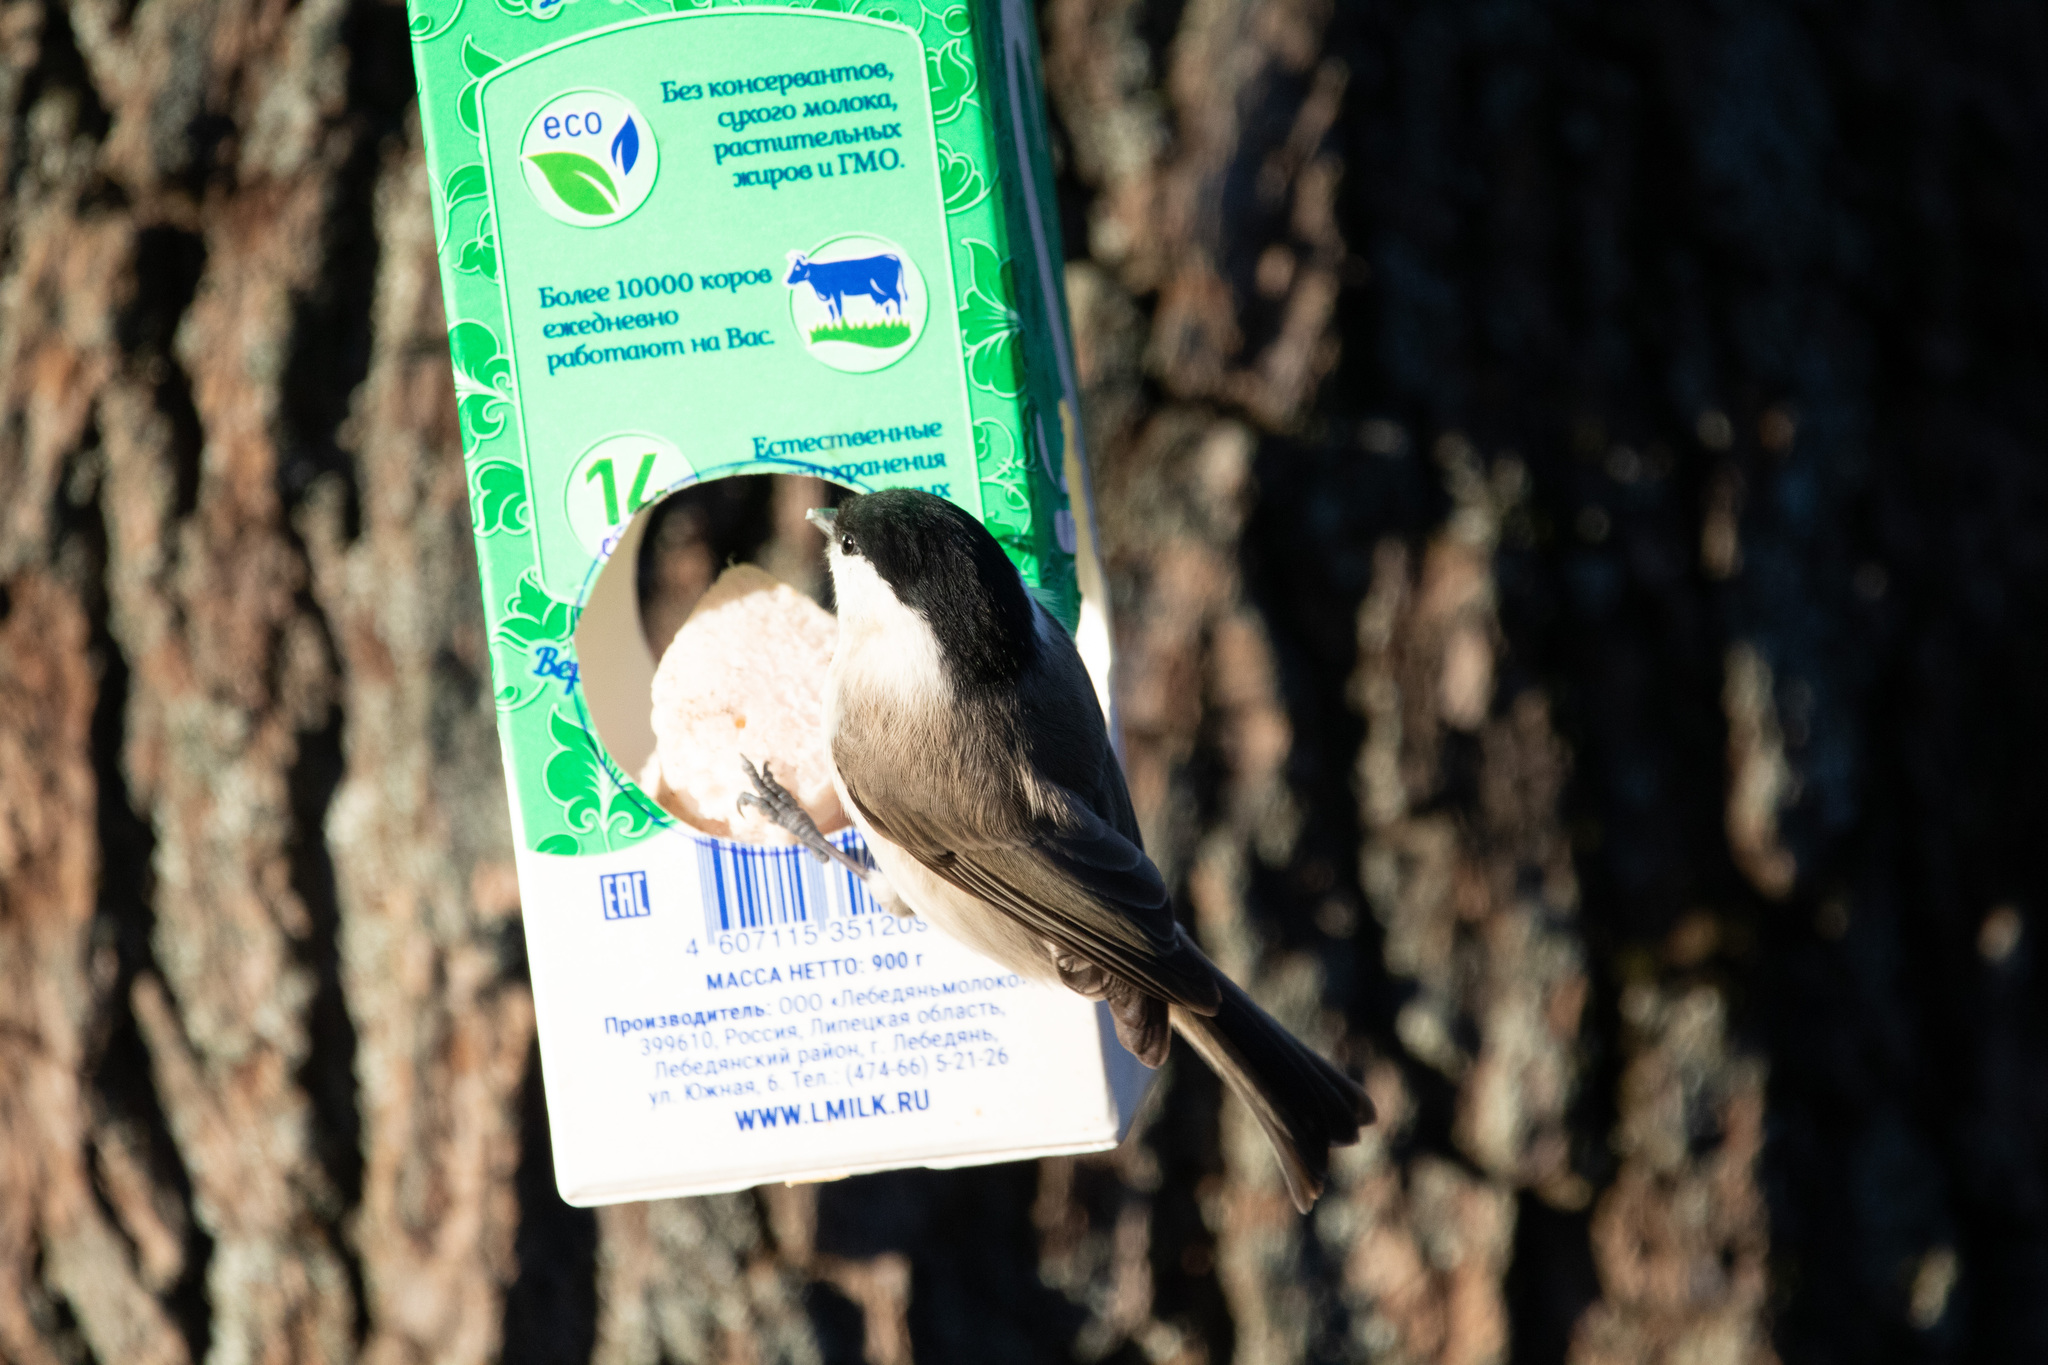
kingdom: Animalia
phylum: Chordata
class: Aves
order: Passeriformes
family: Paridae
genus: Poecile
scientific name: Poecile montanus
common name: Willow tit
